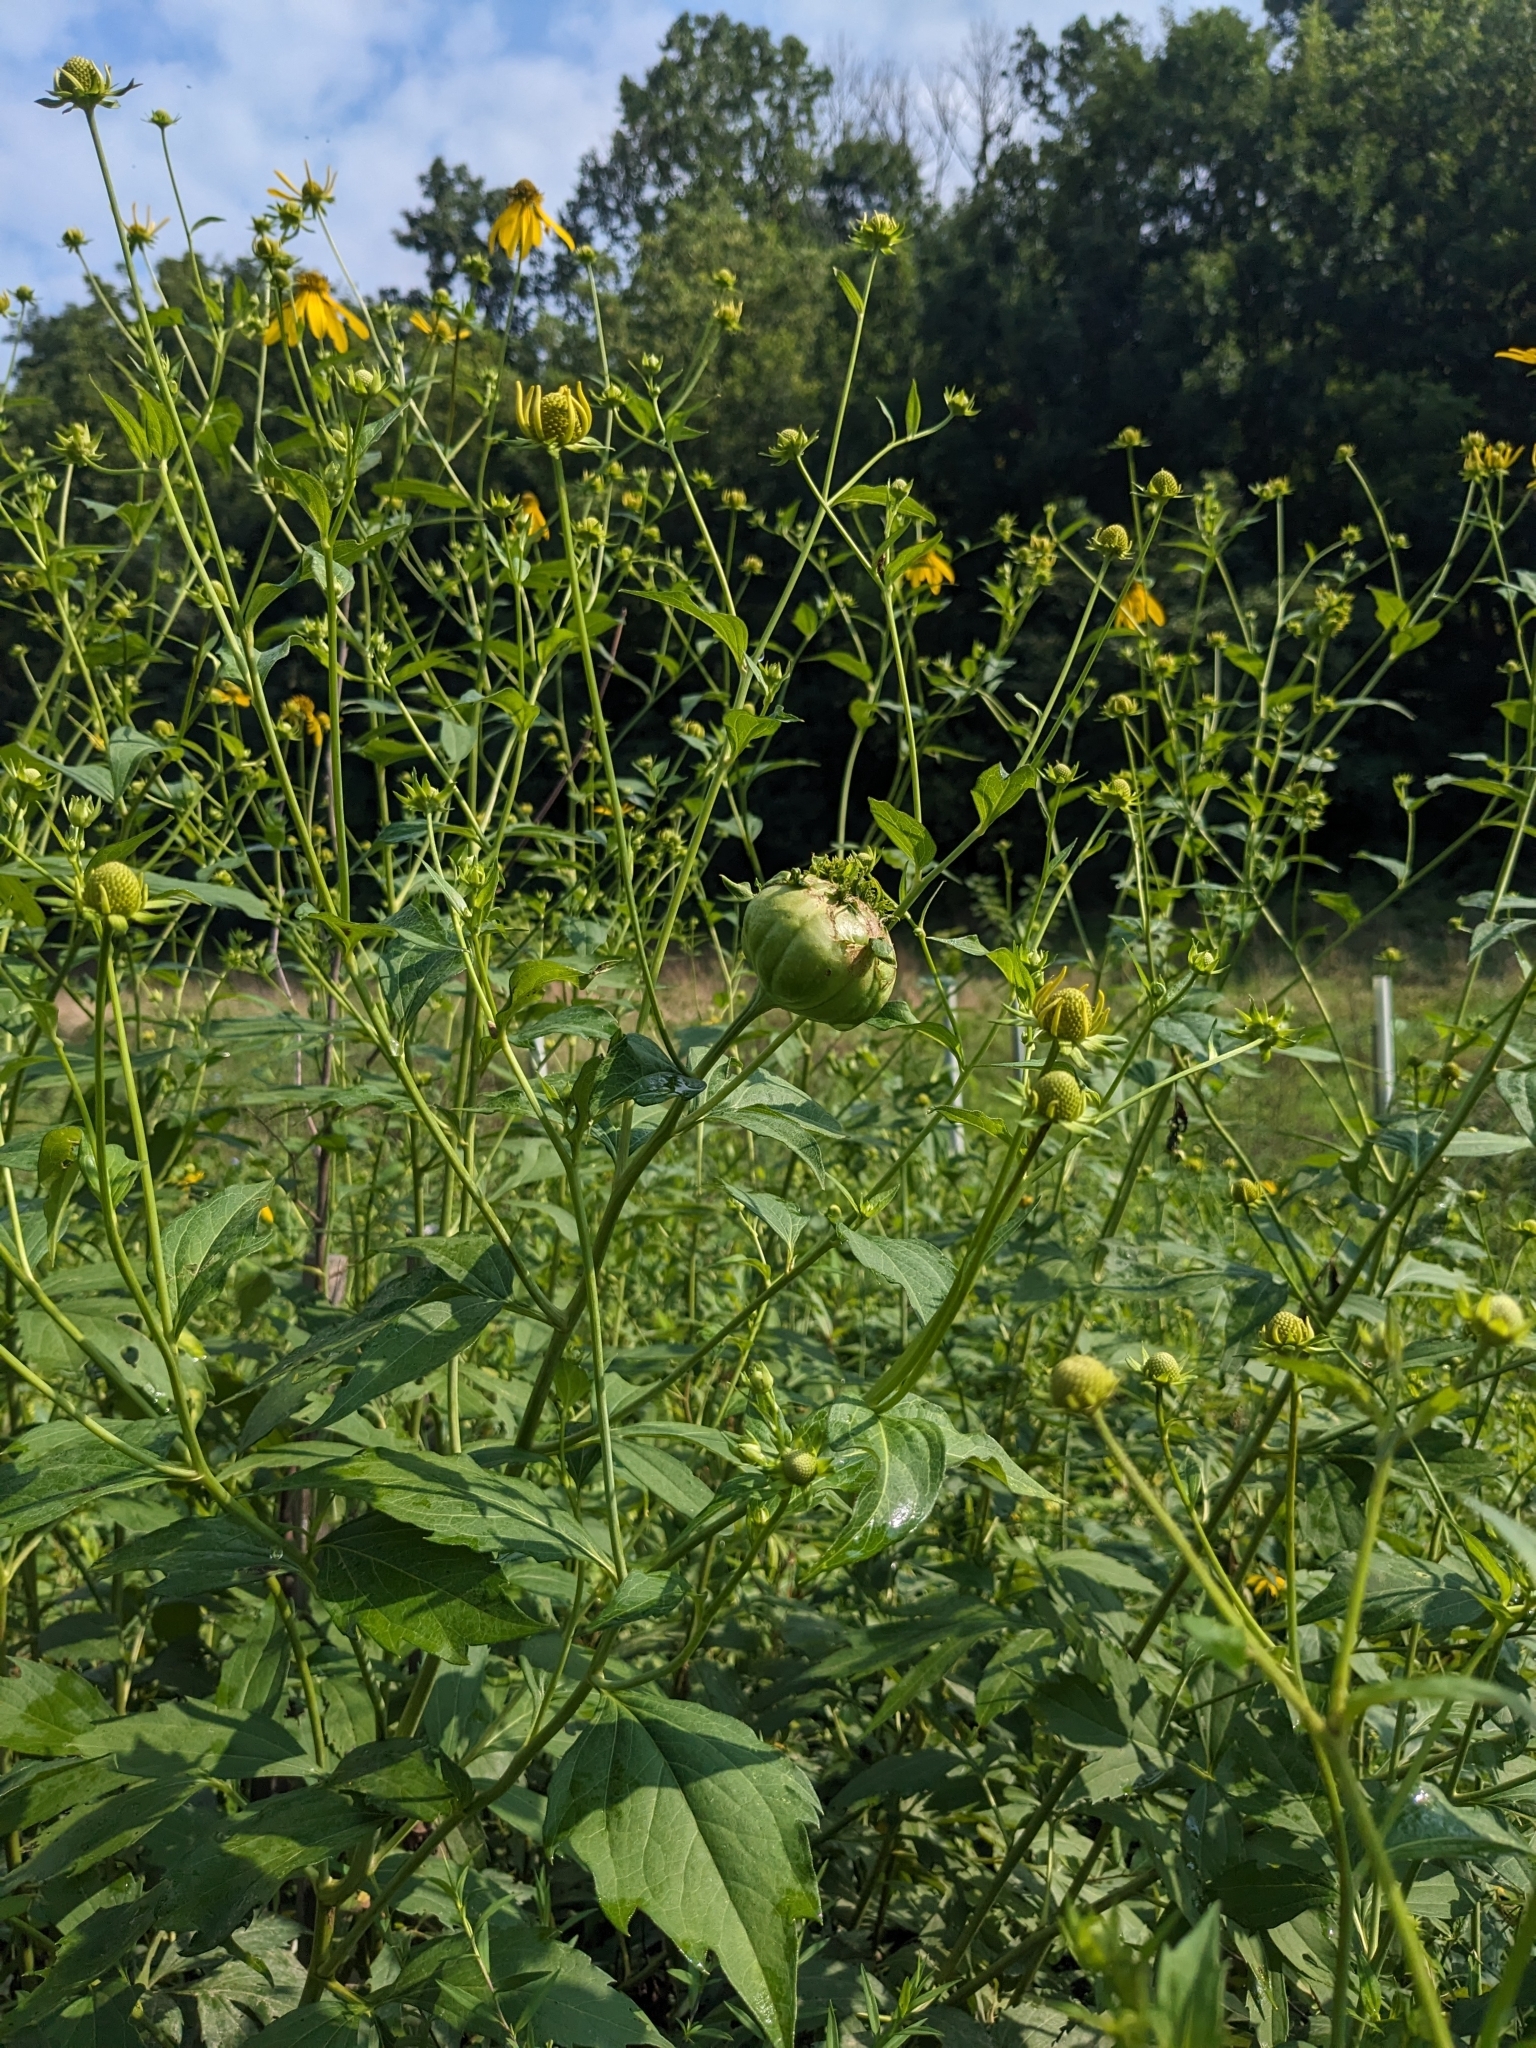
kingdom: Animalia
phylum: Arthropoda
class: Insecta
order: Diptera
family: Cecidomyiidae
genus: Asphondylia
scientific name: Asphondylia rudbeckiaeconspicua
